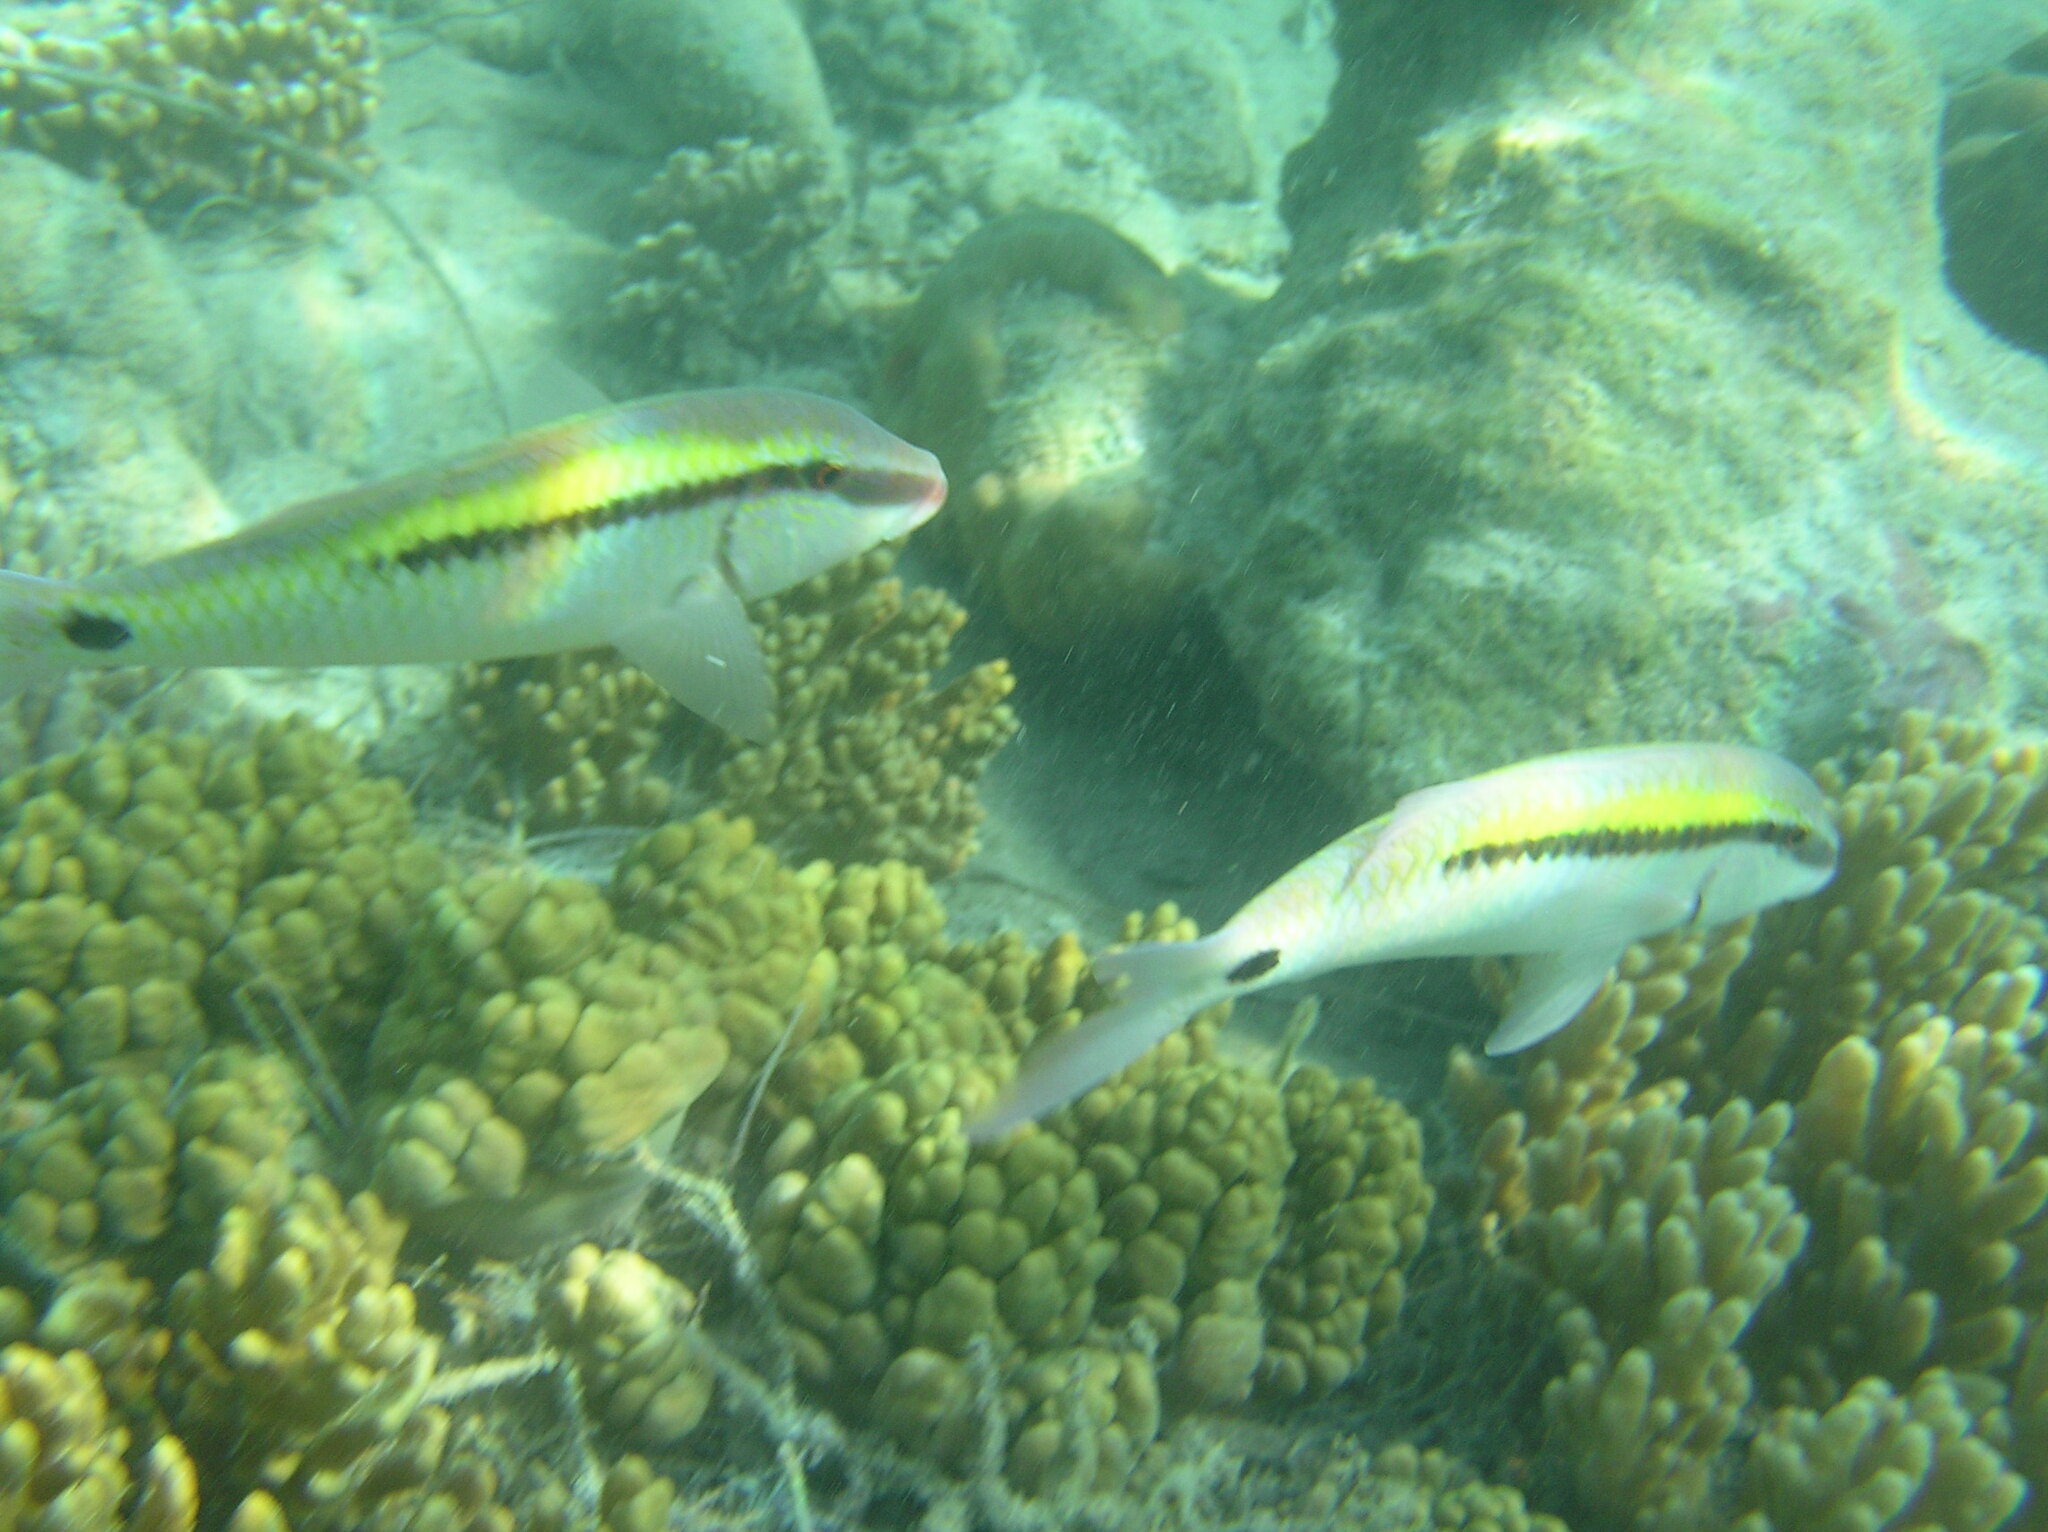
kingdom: Animalia
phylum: Chordata
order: Perciformes
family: Mullidae
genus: Parupeneus
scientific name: Parupeneus barberinus
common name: Dash-and-dot goatfish
